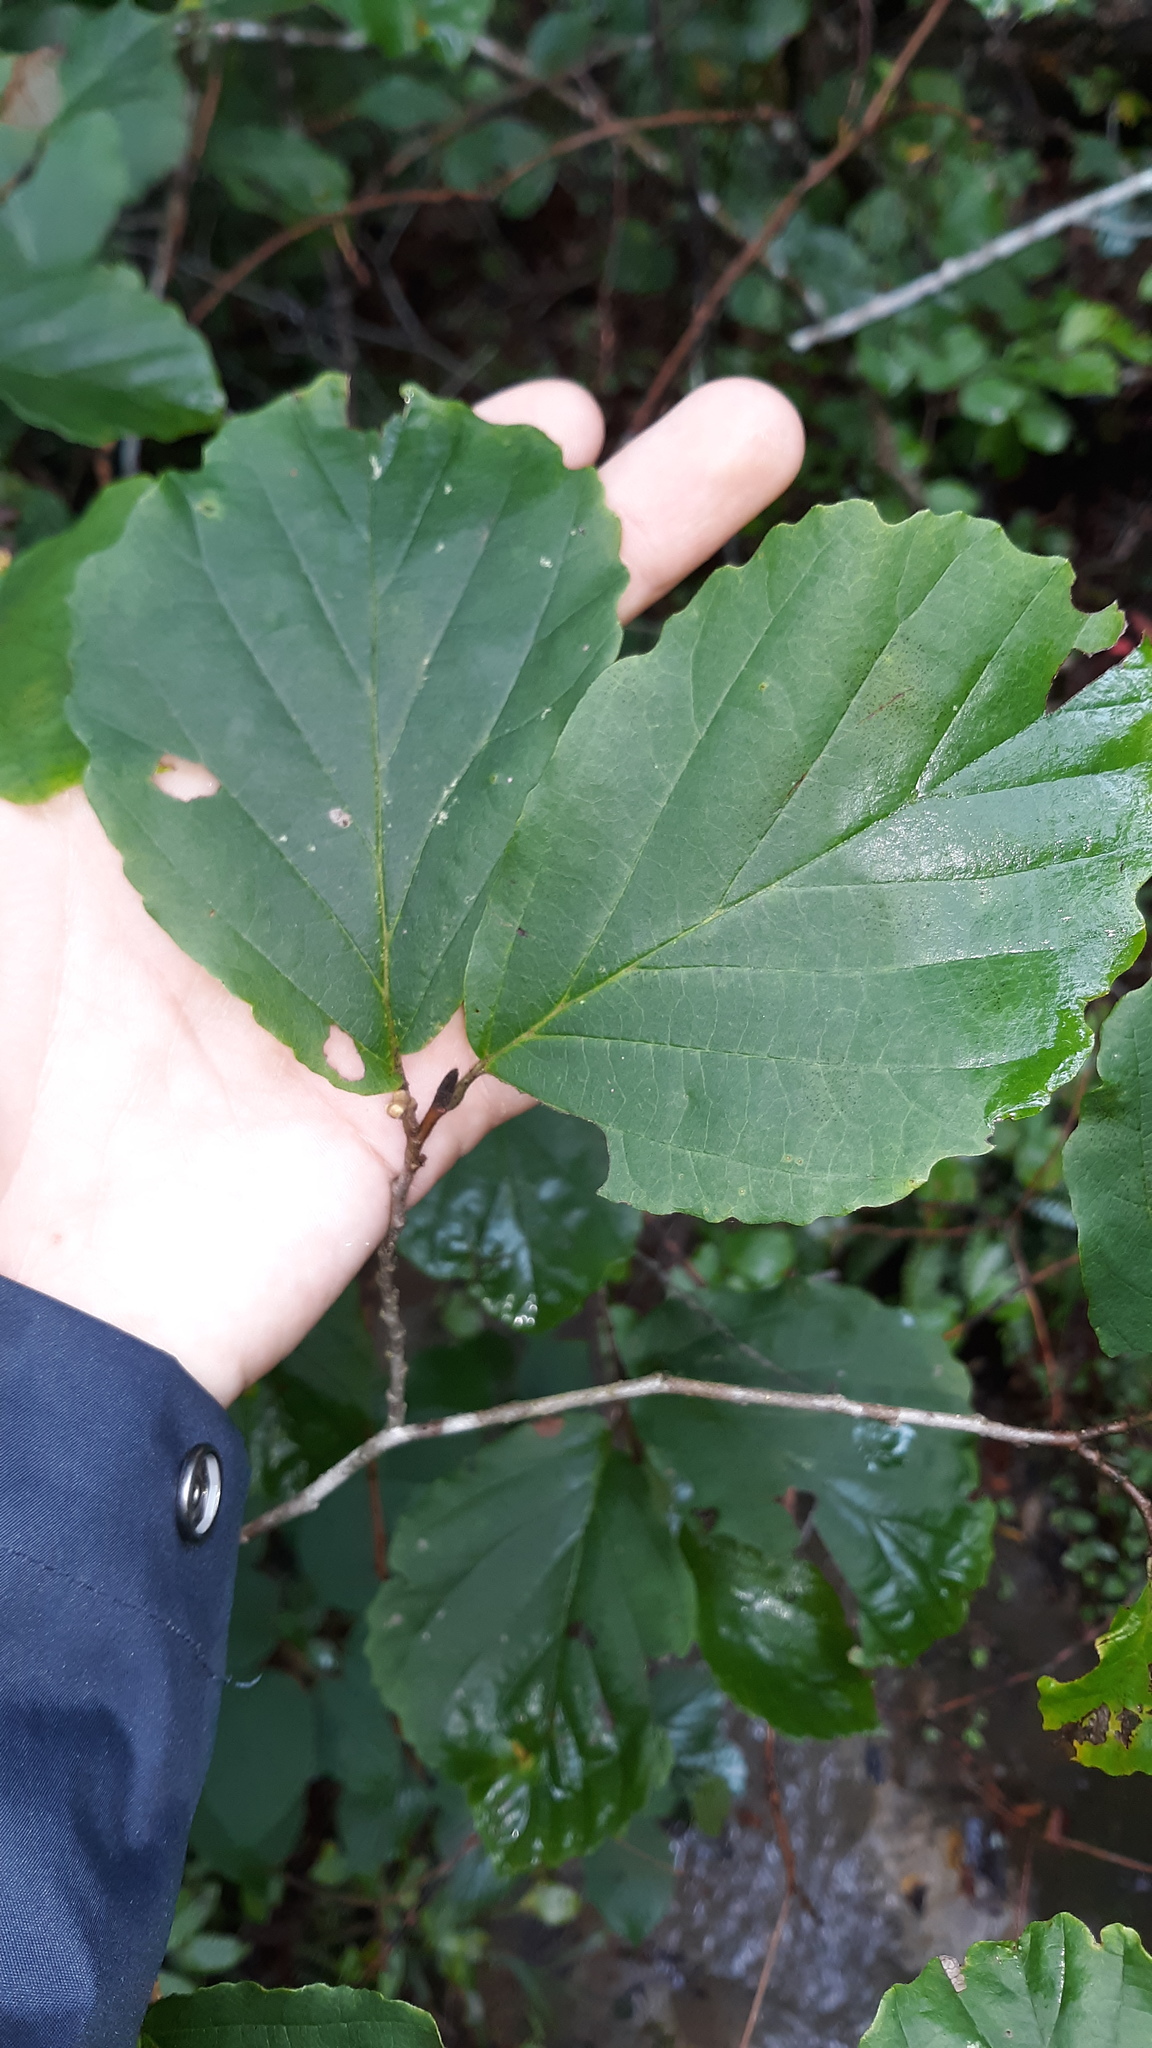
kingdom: Plantae
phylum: Tracheophyta
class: Magnoliopsida
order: Saxifragales
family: Hamamelidaceae
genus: Hamamelis
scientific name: Hamamelis virginiana
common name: Witch-hazel
